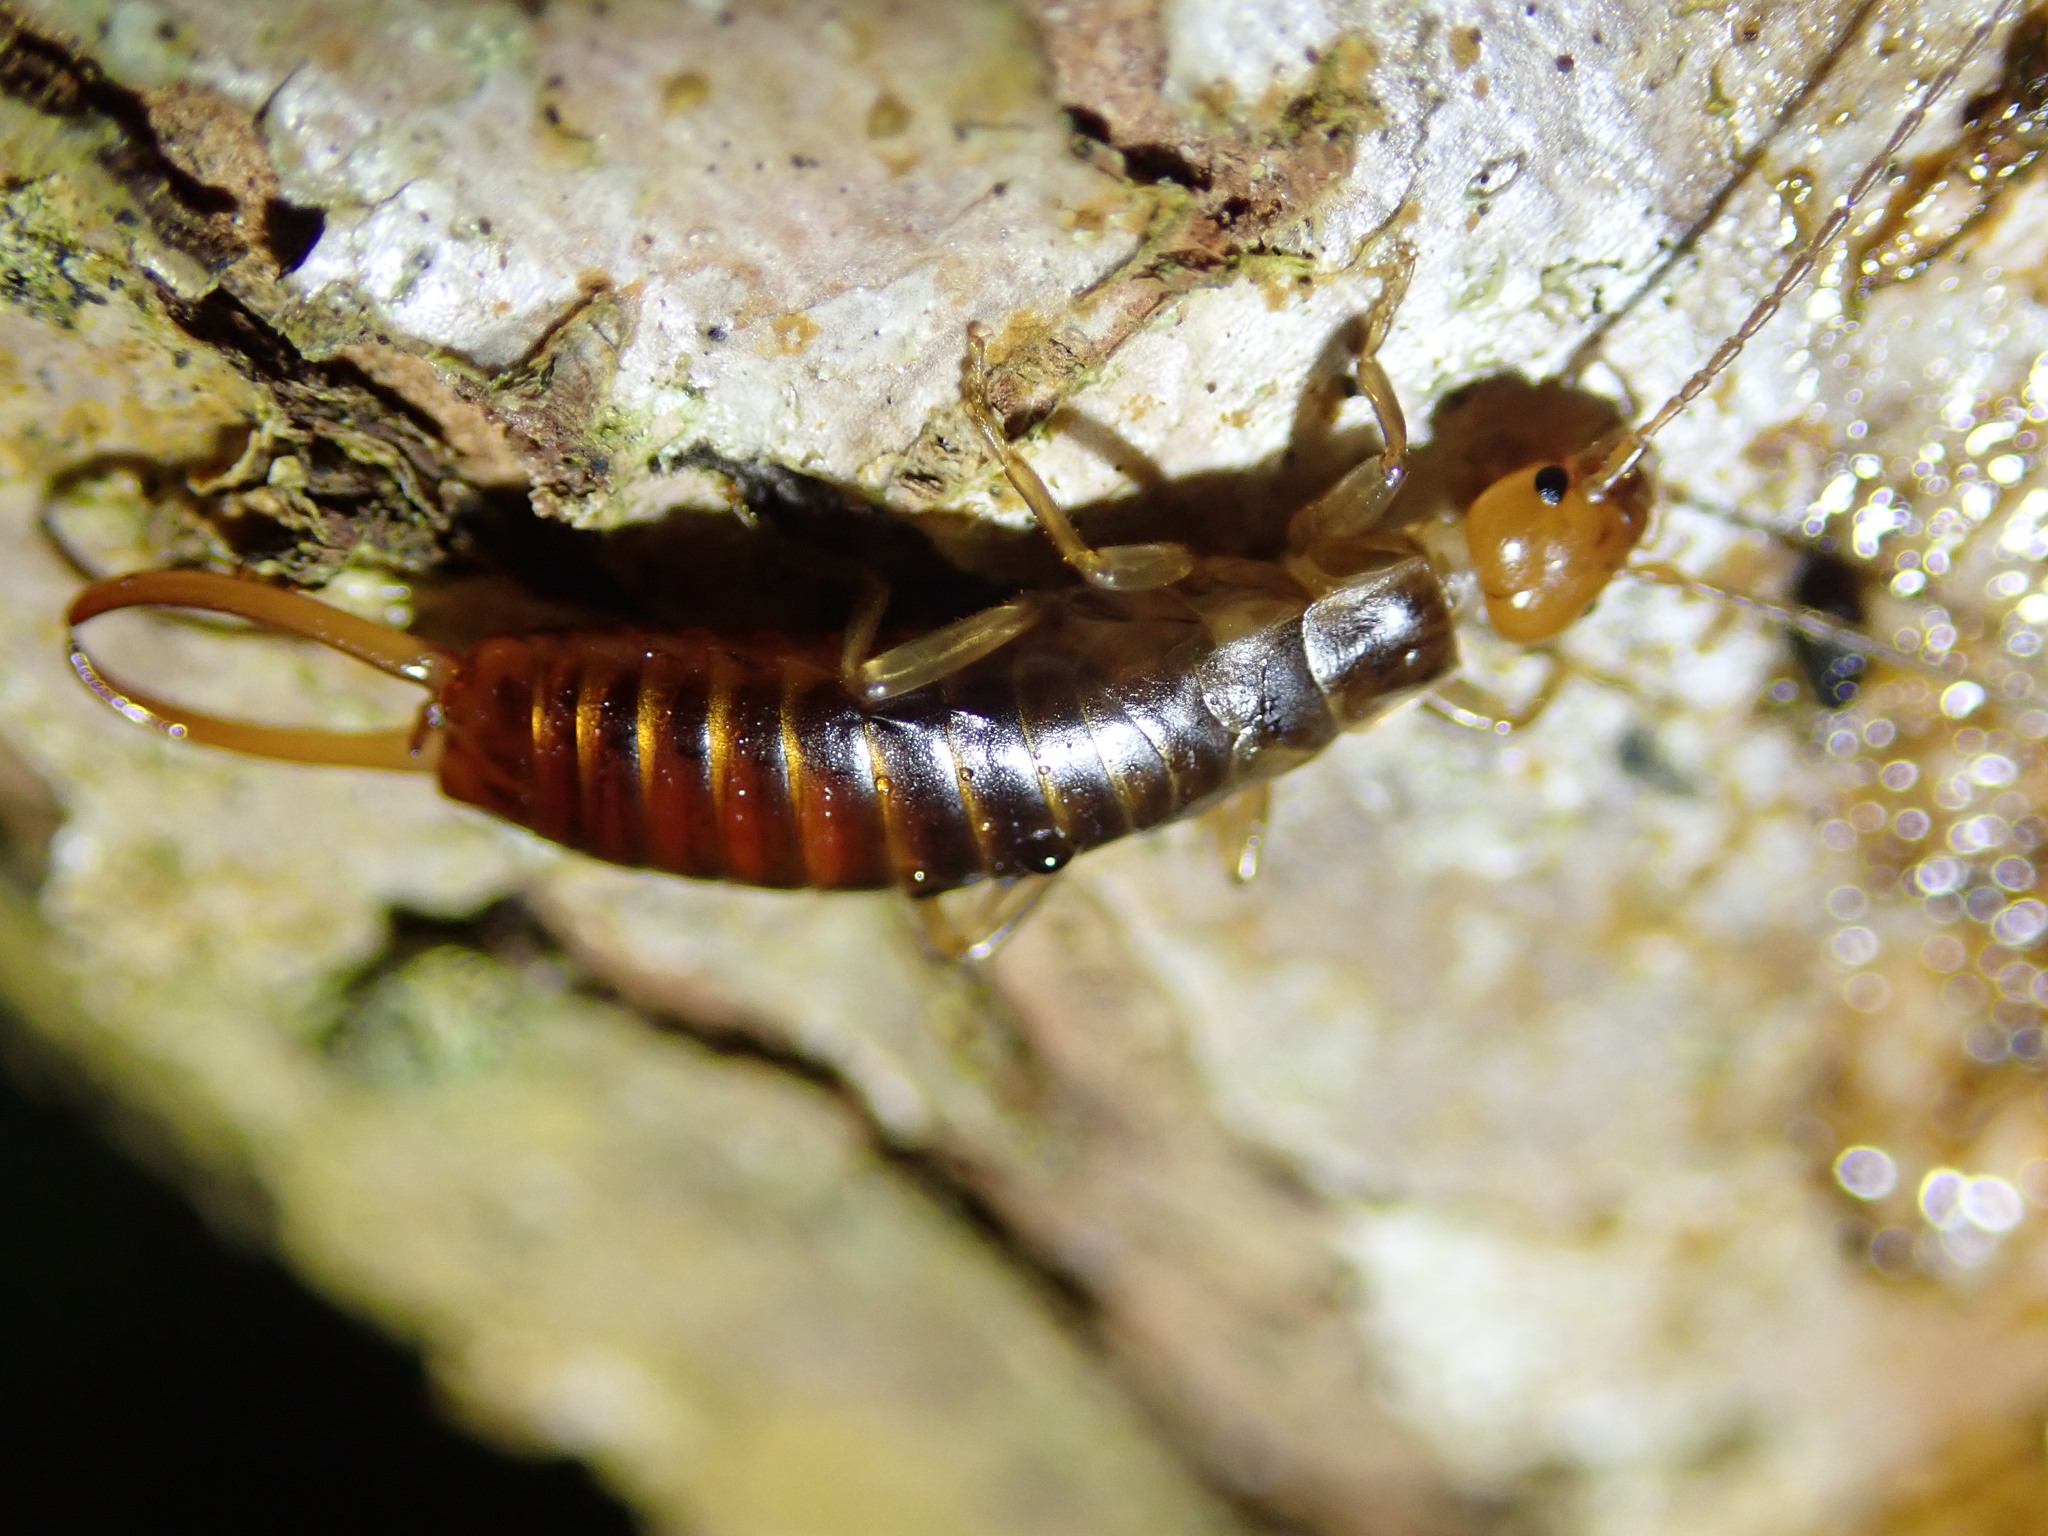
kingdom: Animalia
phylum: Arthropoda
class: Insecta
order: Dermaptera
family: Forficulidae
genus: Chelidurella
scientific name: Chelidurella acanthopygia
